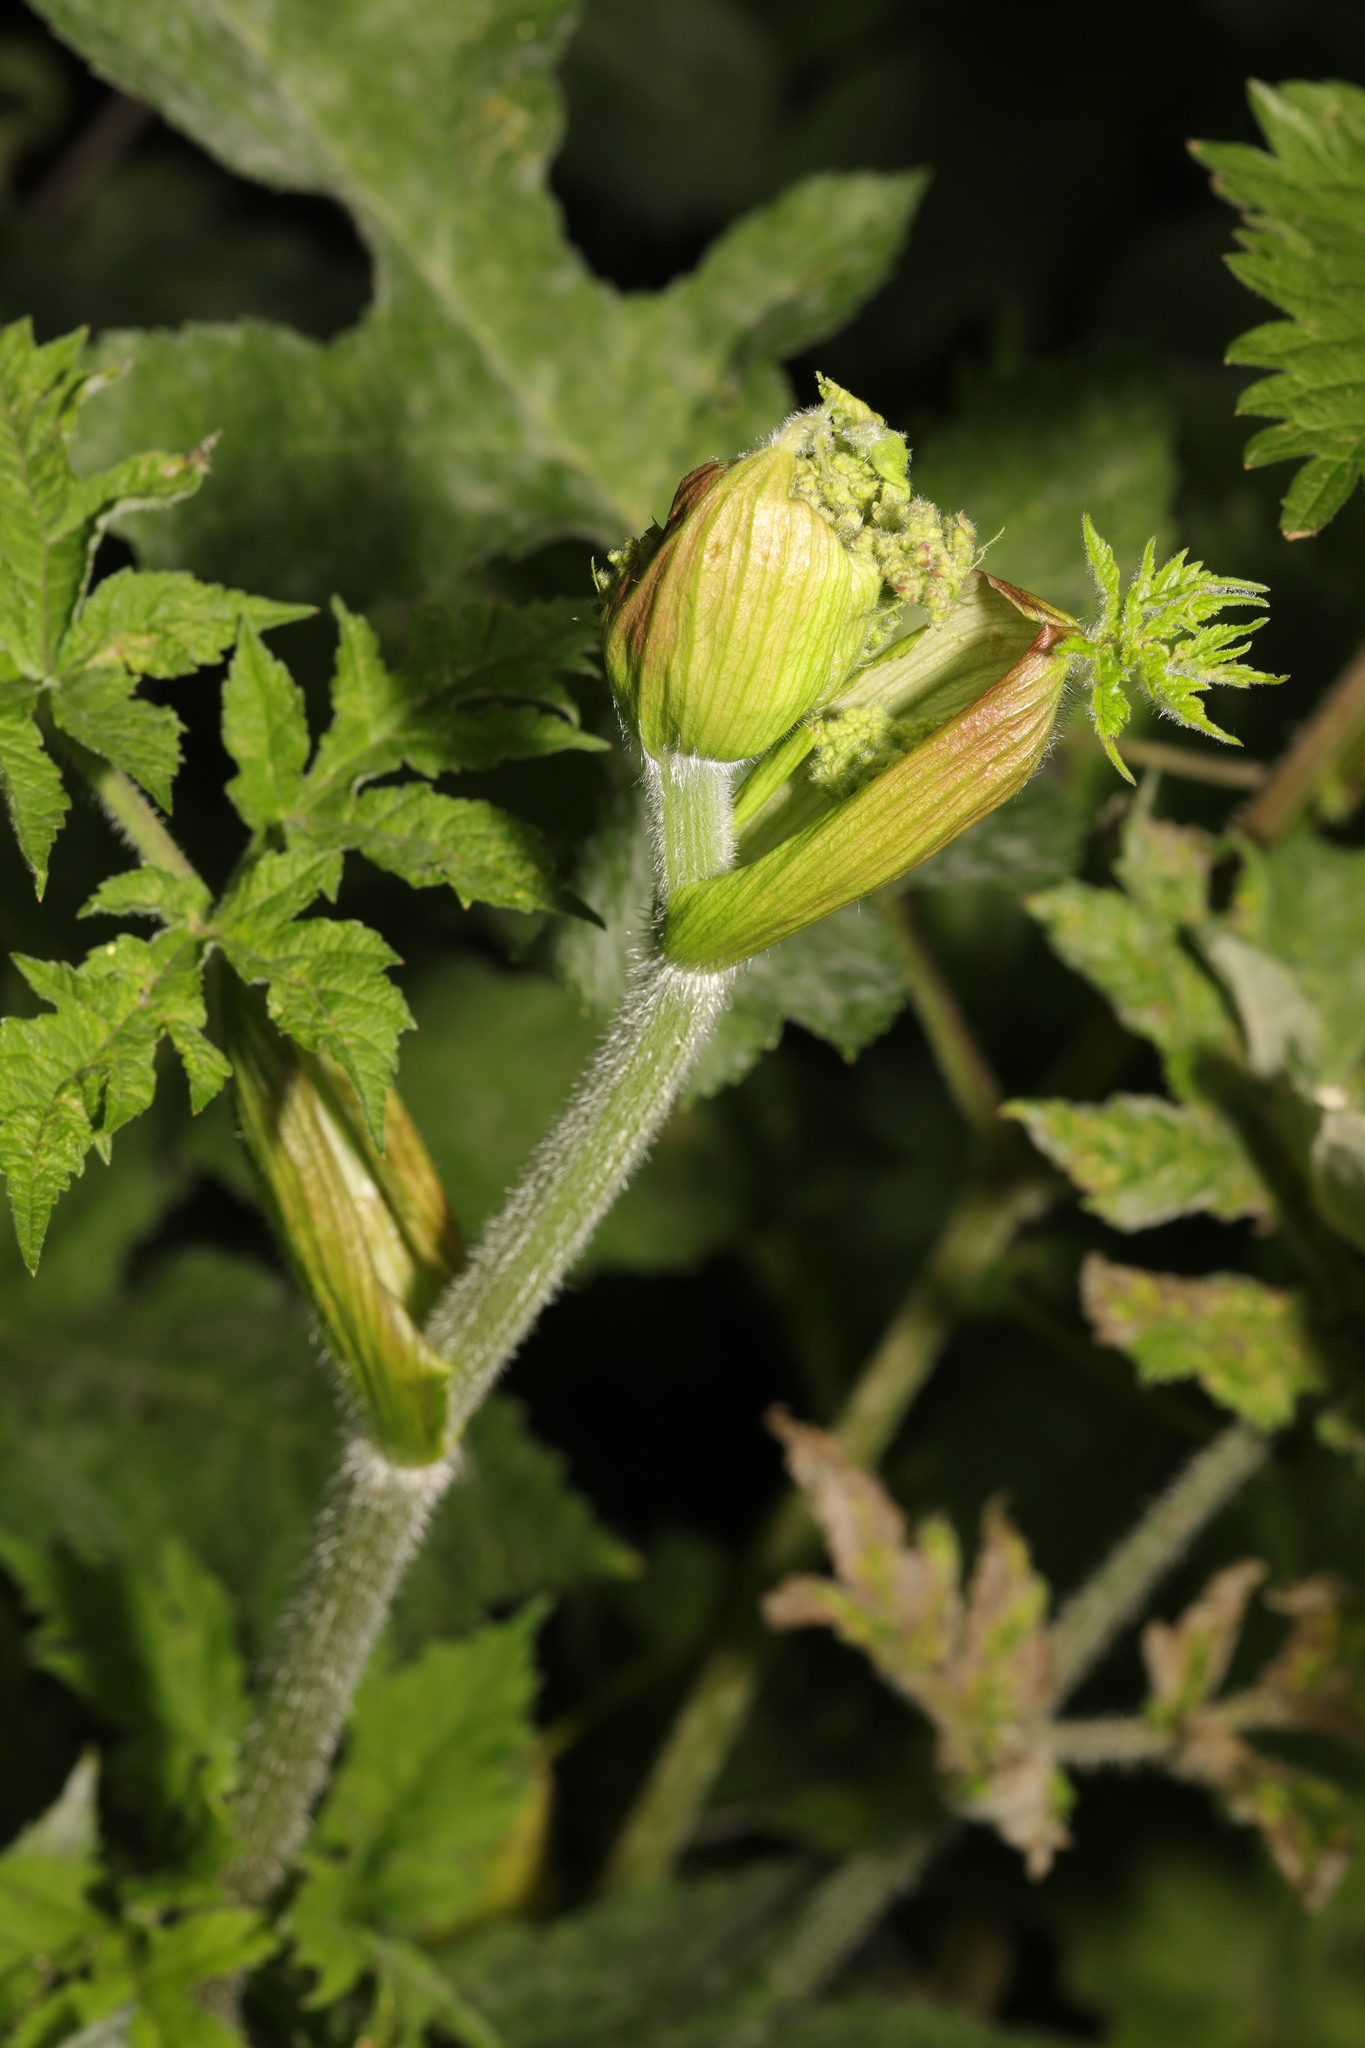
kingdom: Plantae
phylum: Tracheophyta
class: Magnoliopsida
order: Apiales
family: Apiaceae
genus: Heracleum
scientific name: Heracleum sphondylium
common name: Hogweed
